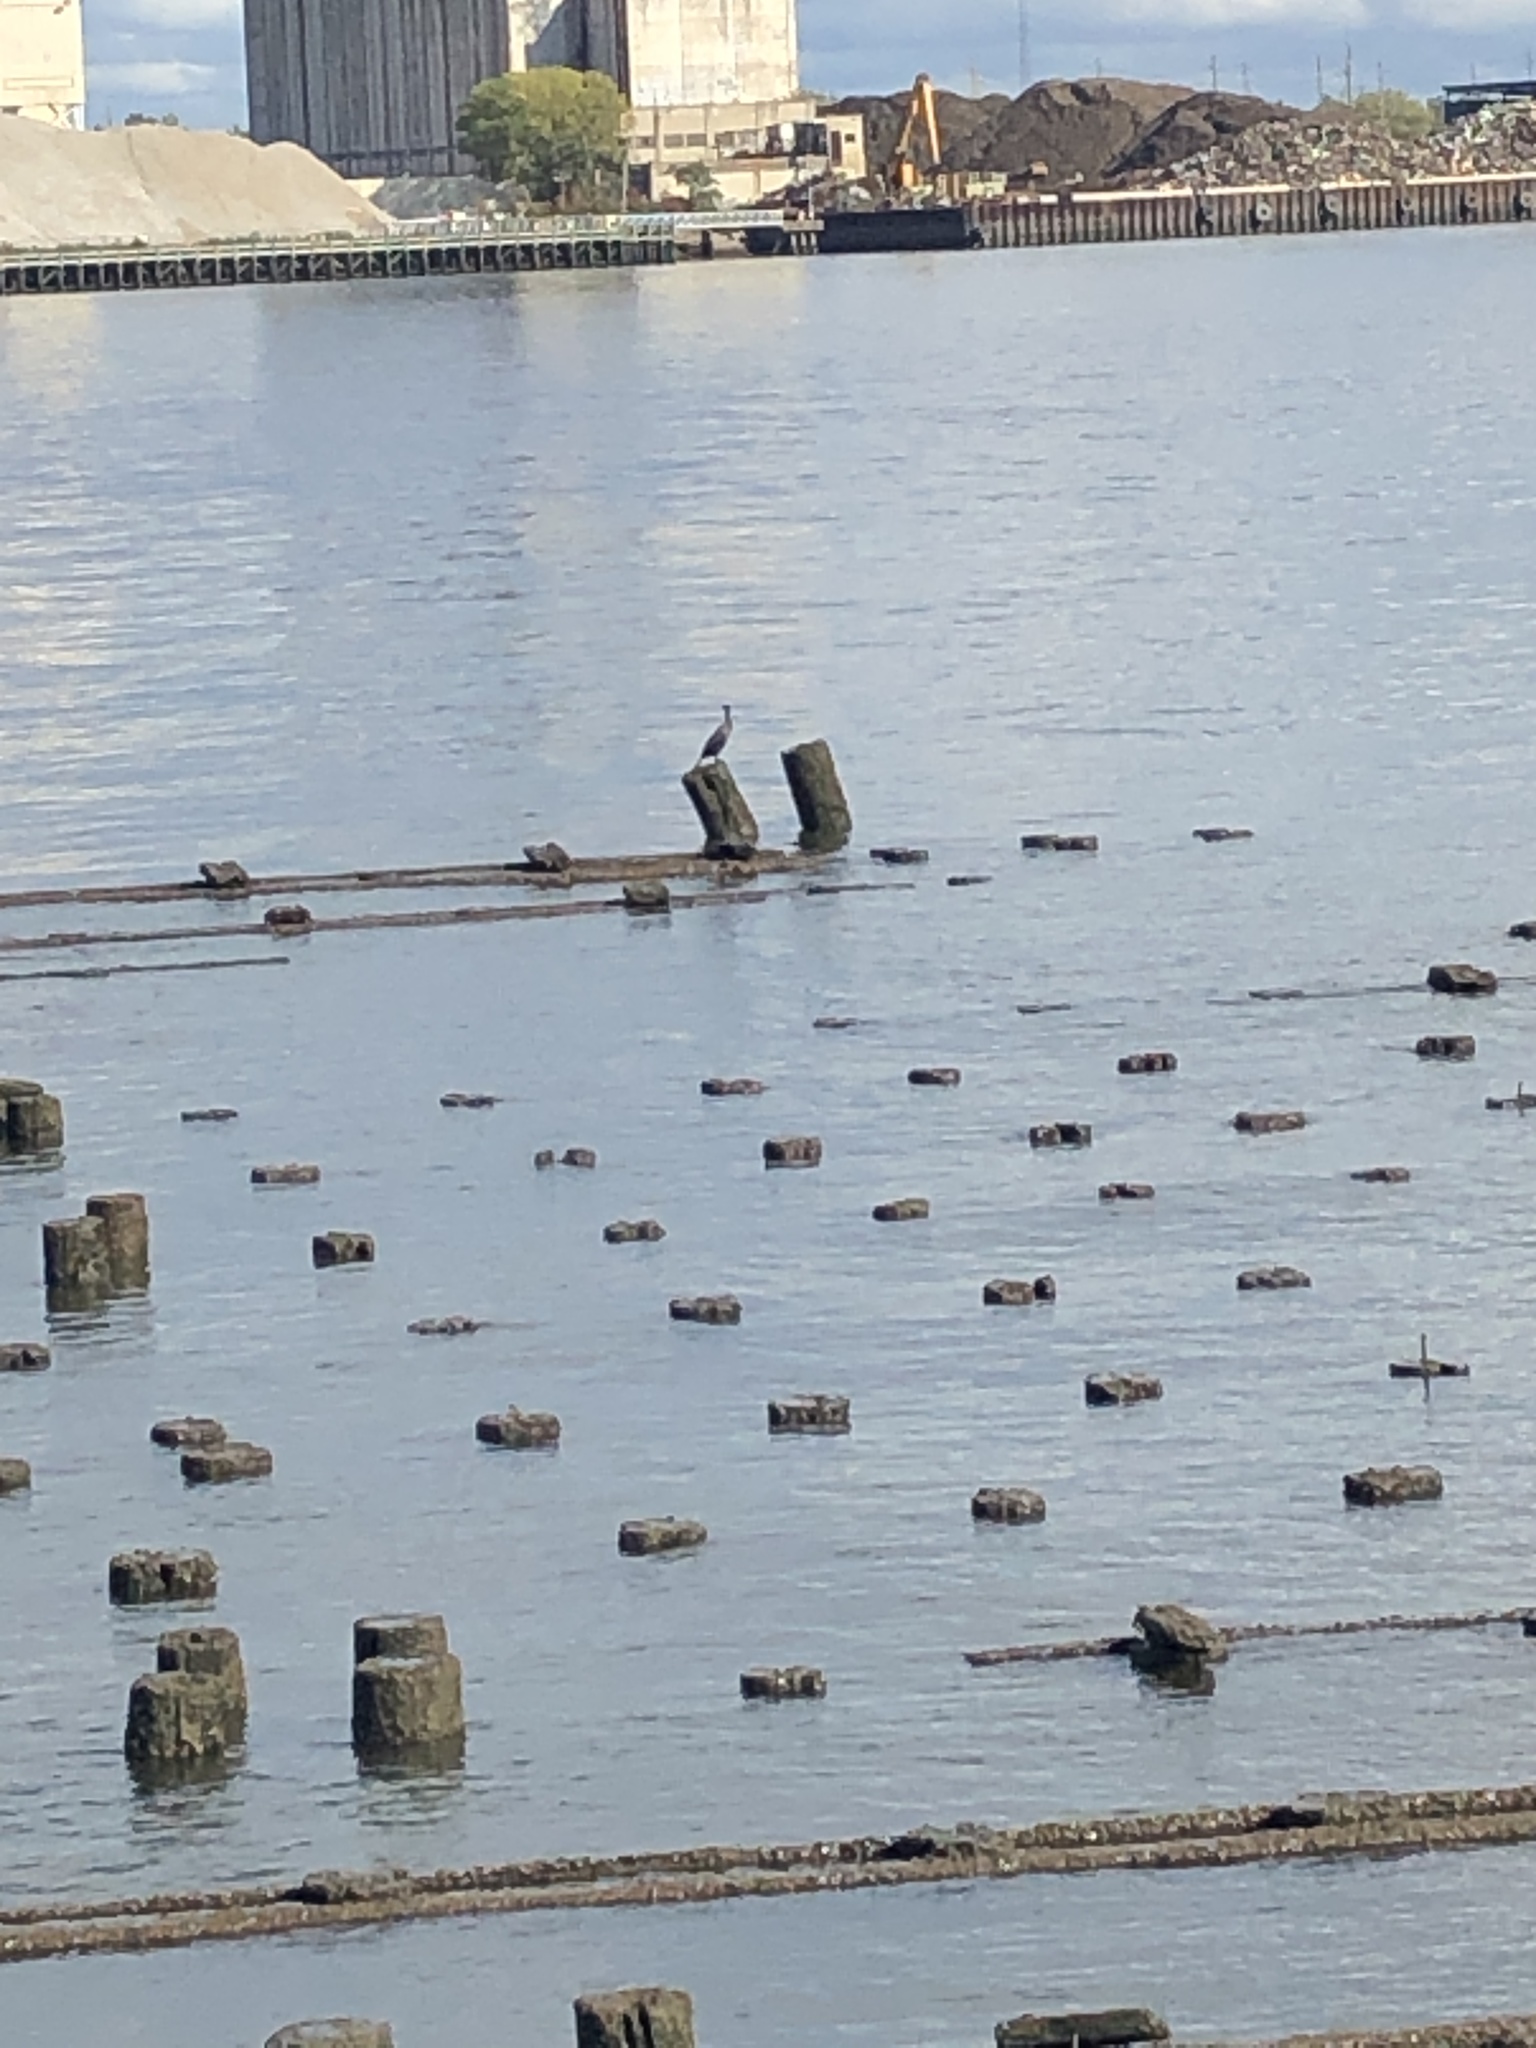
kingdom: Animalia
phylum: Chordata
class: Aves
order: Suliformes
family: Phalacrocoracidae
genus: Phalacrocorax
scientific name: Phalacrocorax auritus
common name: Double-crested cormorant
